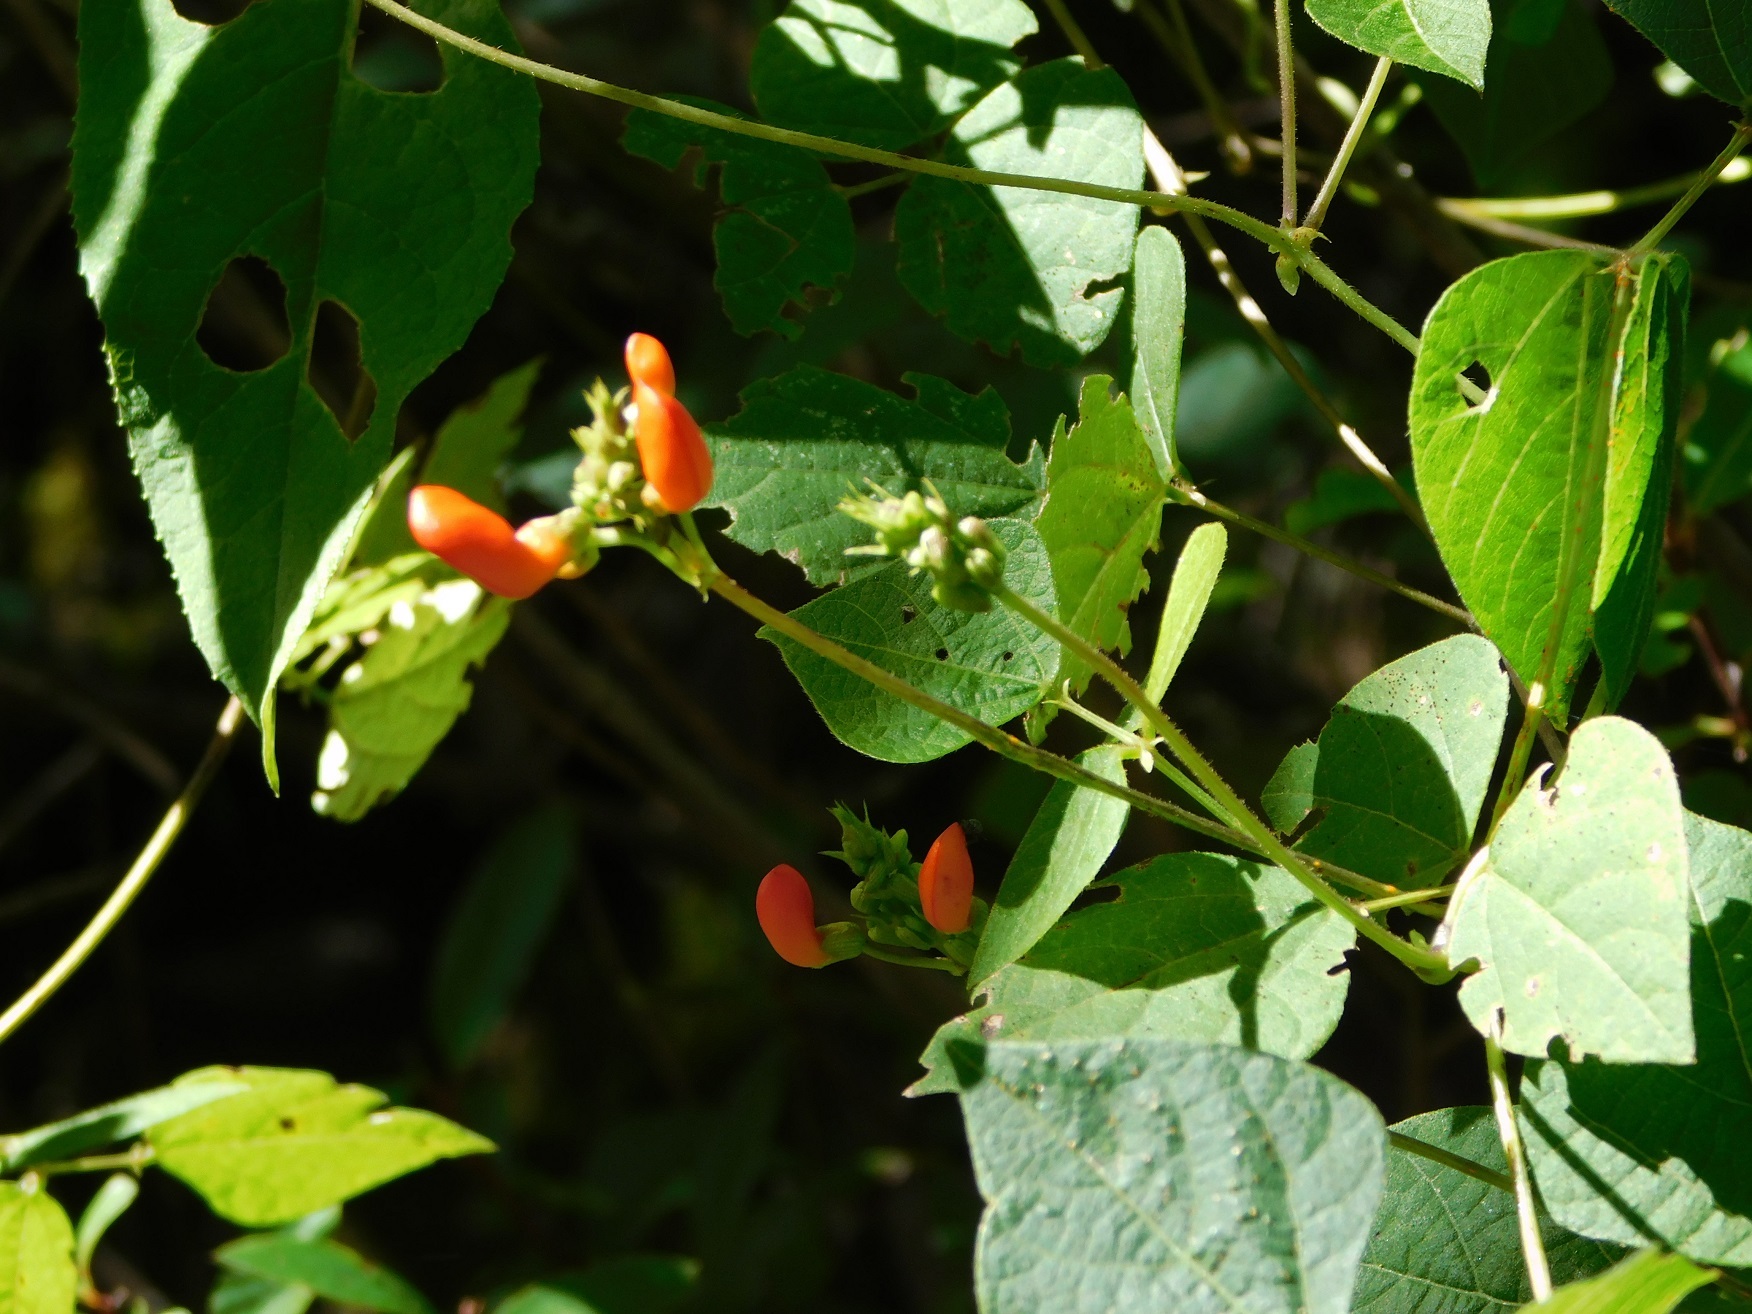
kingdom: Plantae
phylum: Tracheophyta
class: Magnoliopsida
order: Fabales
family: Fabaceae
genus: Phaseolus
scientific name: Phaseolus coccineus
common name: Runner bean
